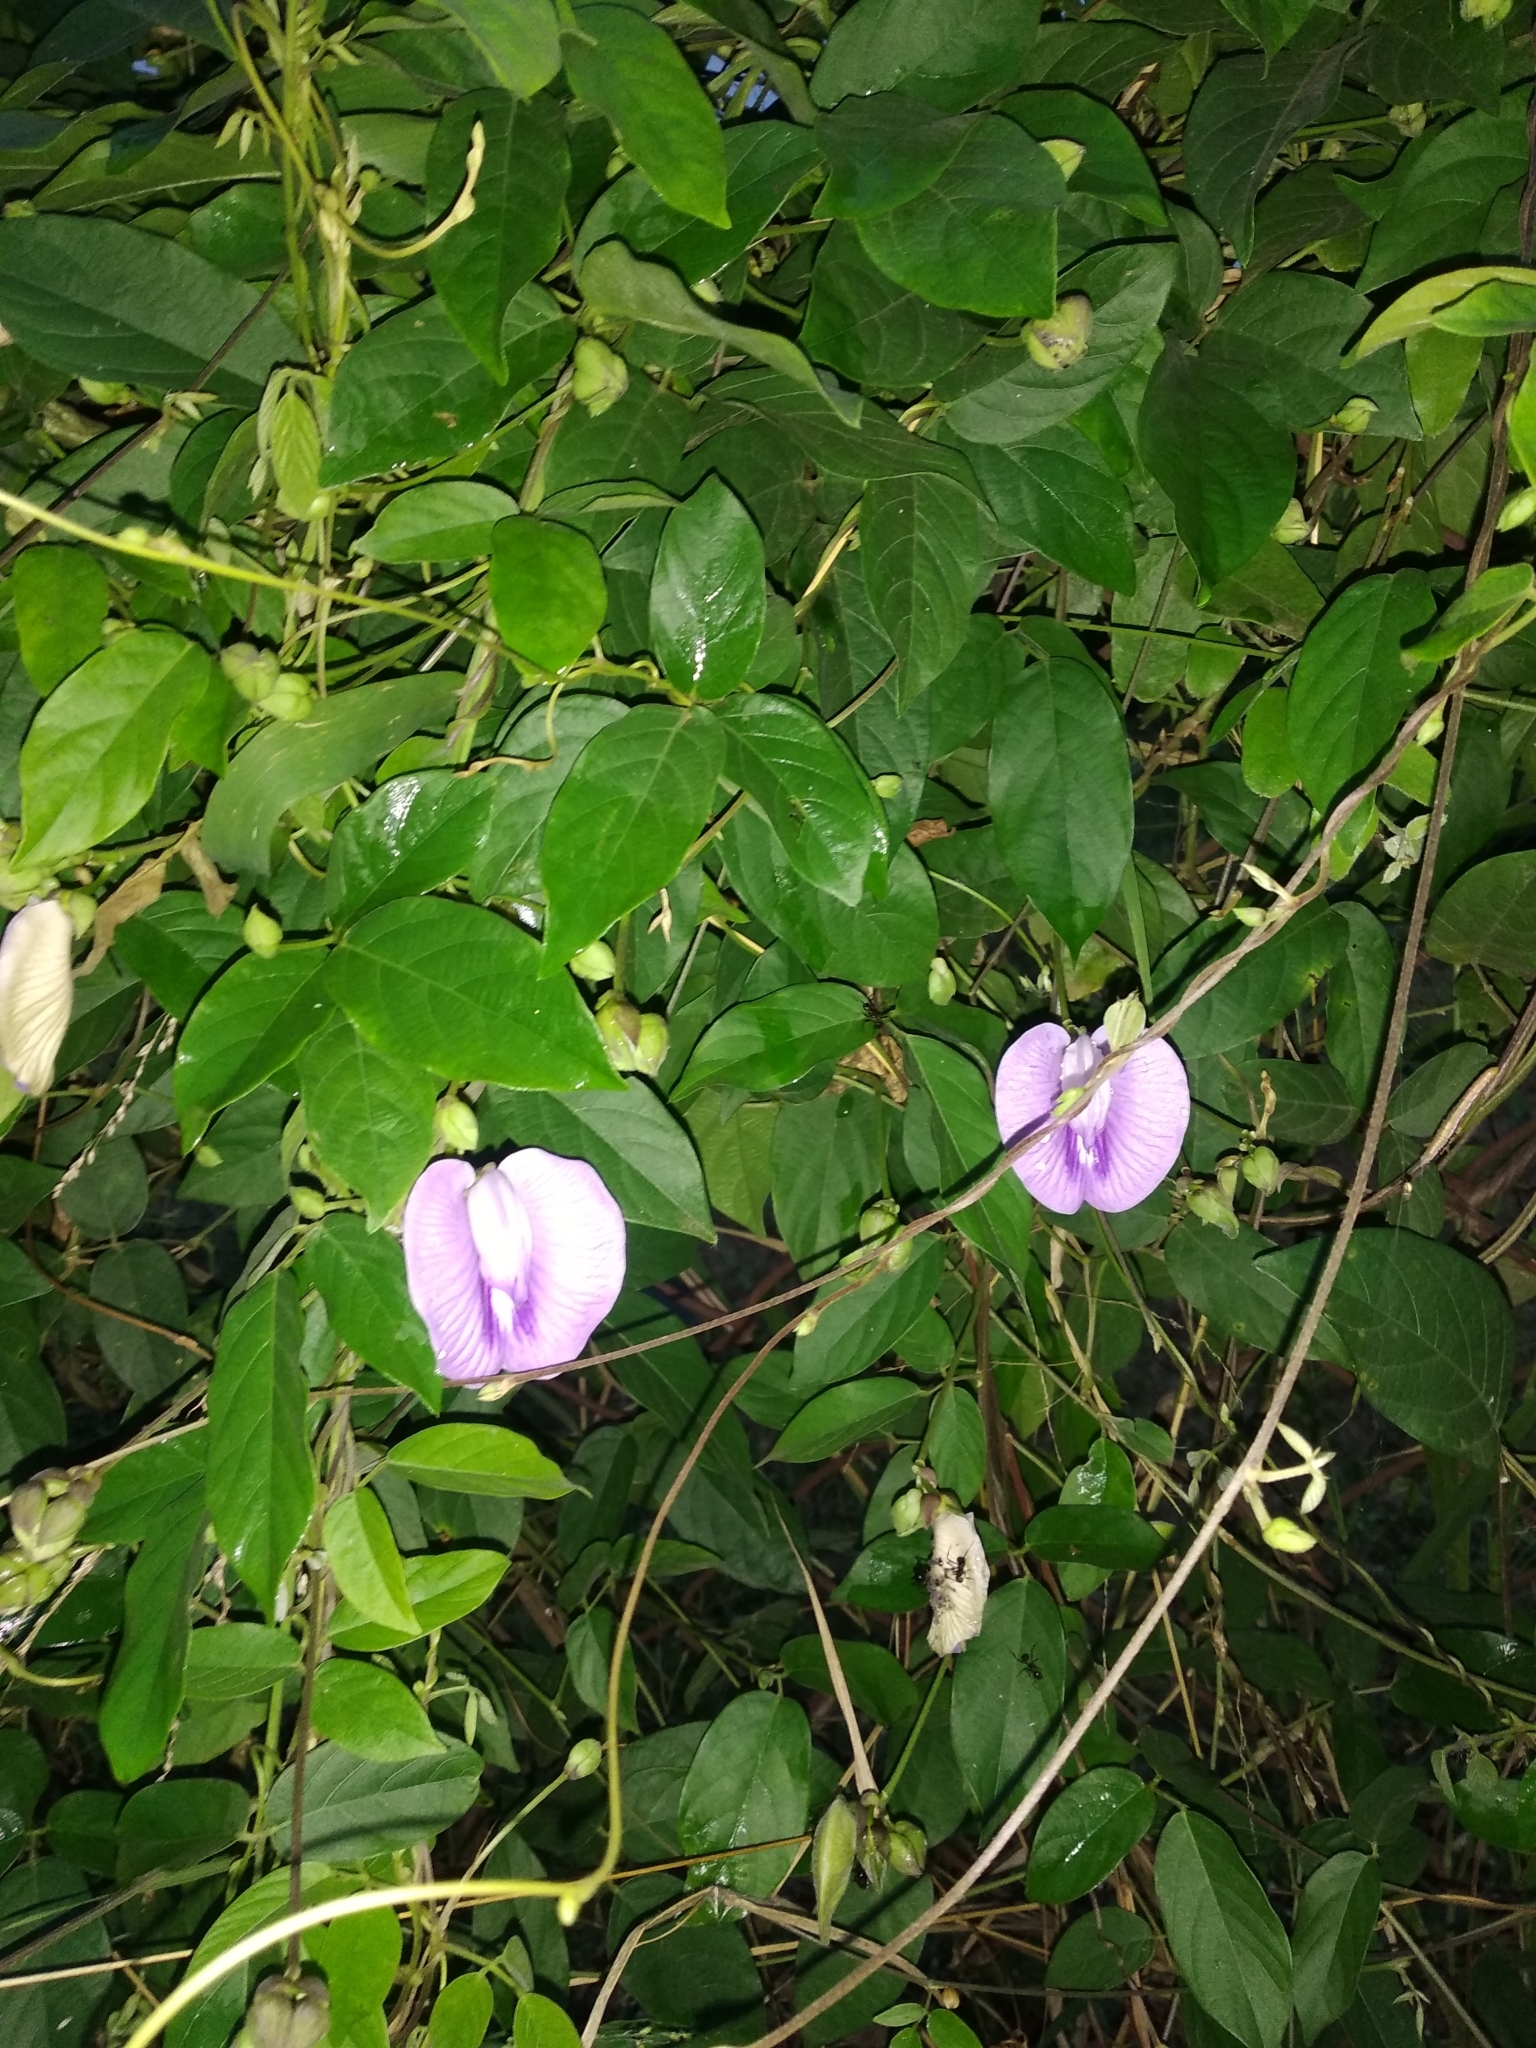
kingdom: Plantae
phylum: Tracheophyta
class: Magnoliopsida
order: Fabales
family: Fabaceae
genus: Centrosema
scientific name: Centrosema molle
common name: Soft butterfly pea
